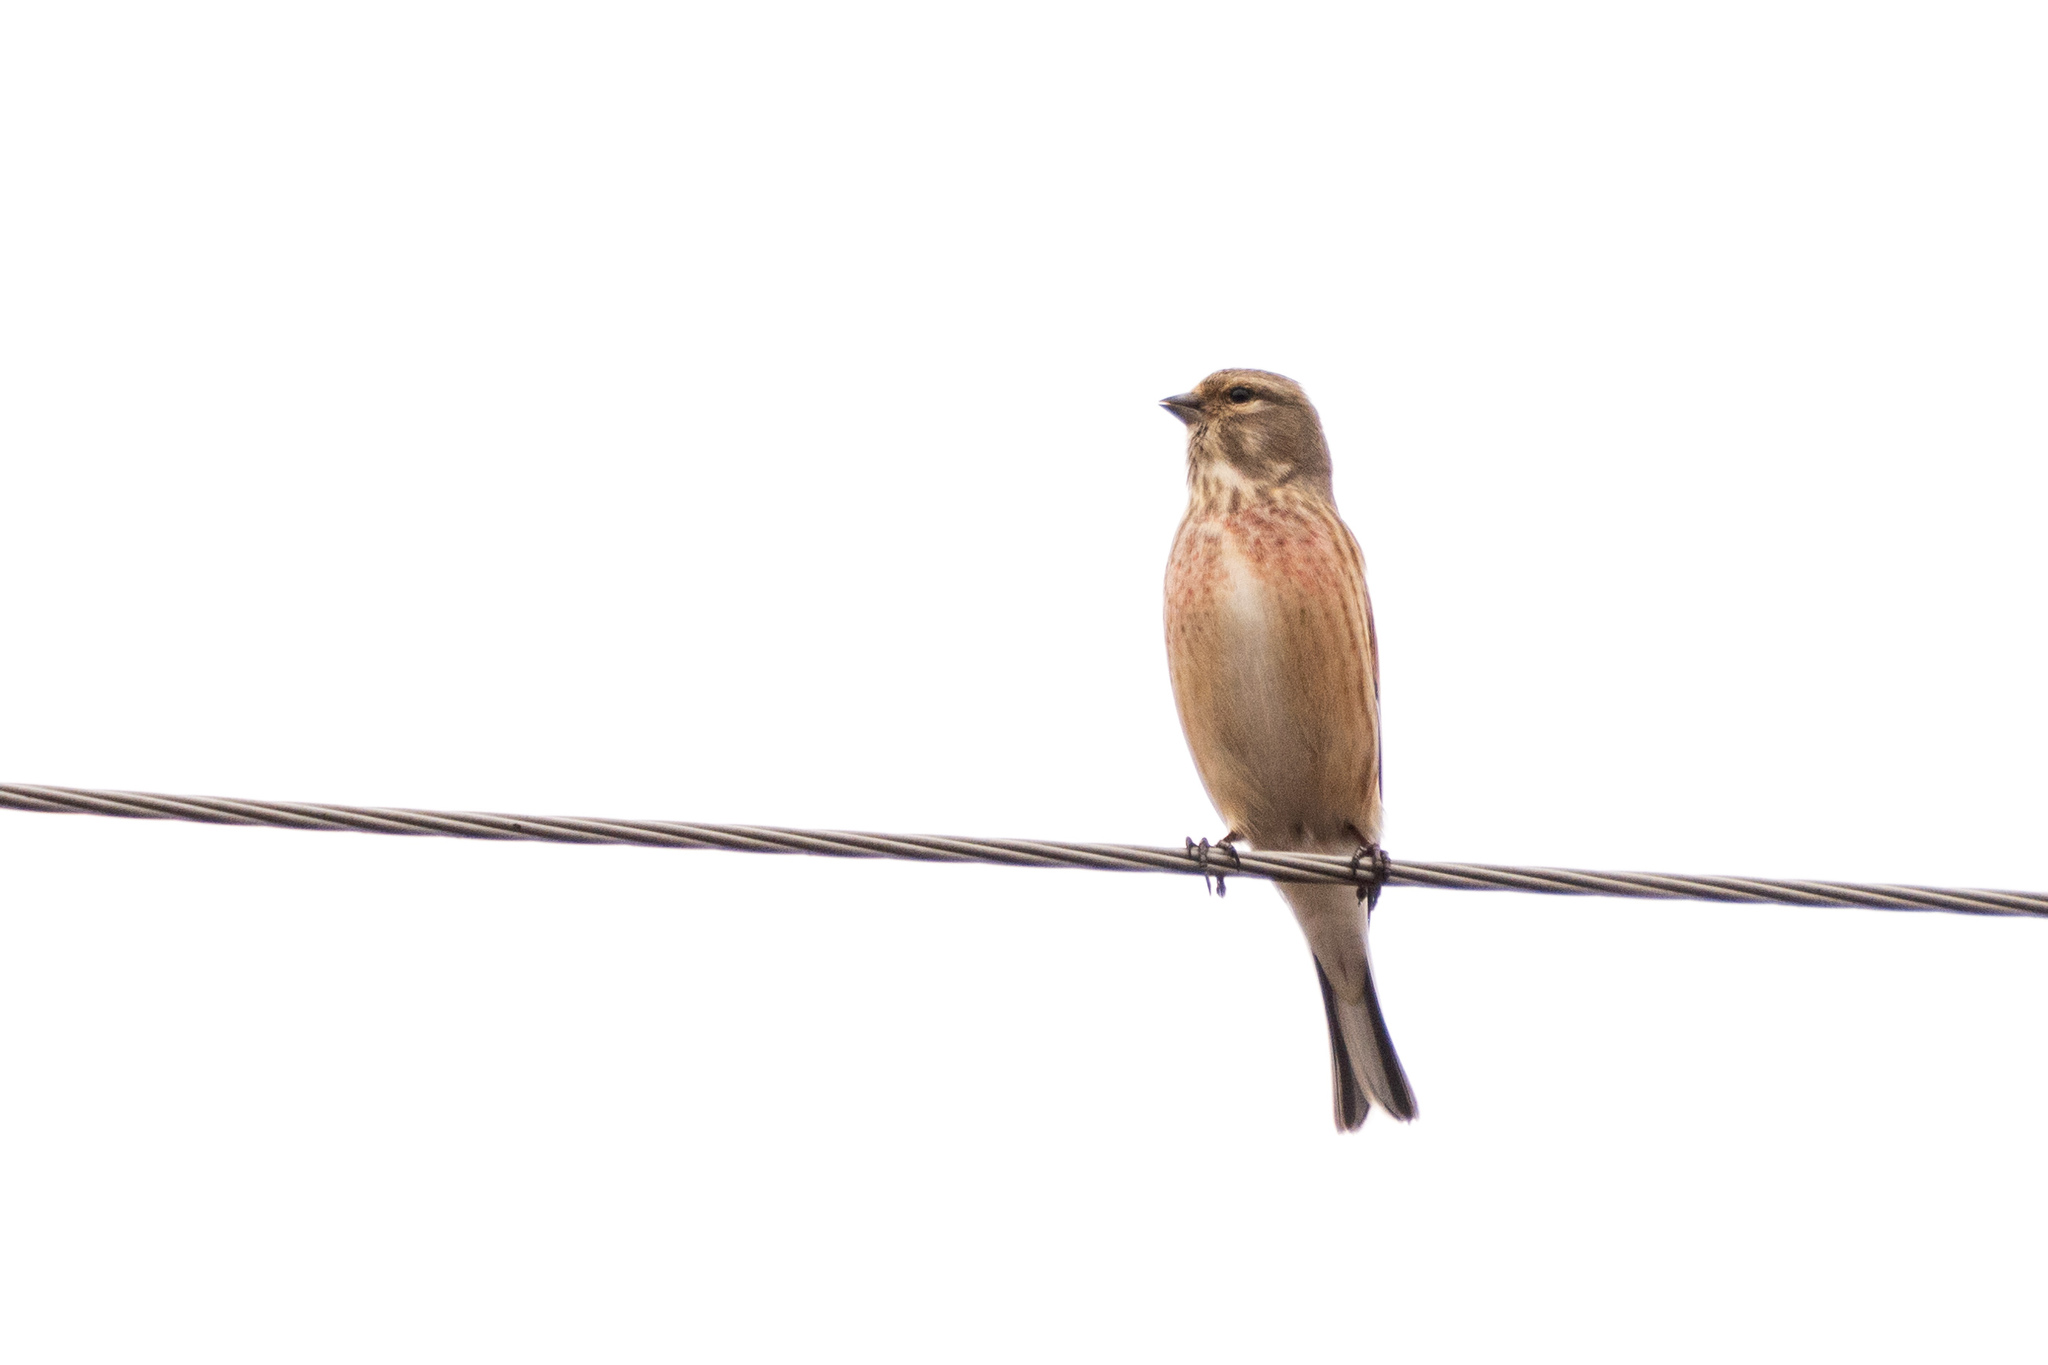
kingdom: Animalia
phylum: Chordata
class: Aves
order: Passeriformes
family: Fringillidae
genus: Linaria
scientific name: Linaria cannabina
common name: Common linnet
